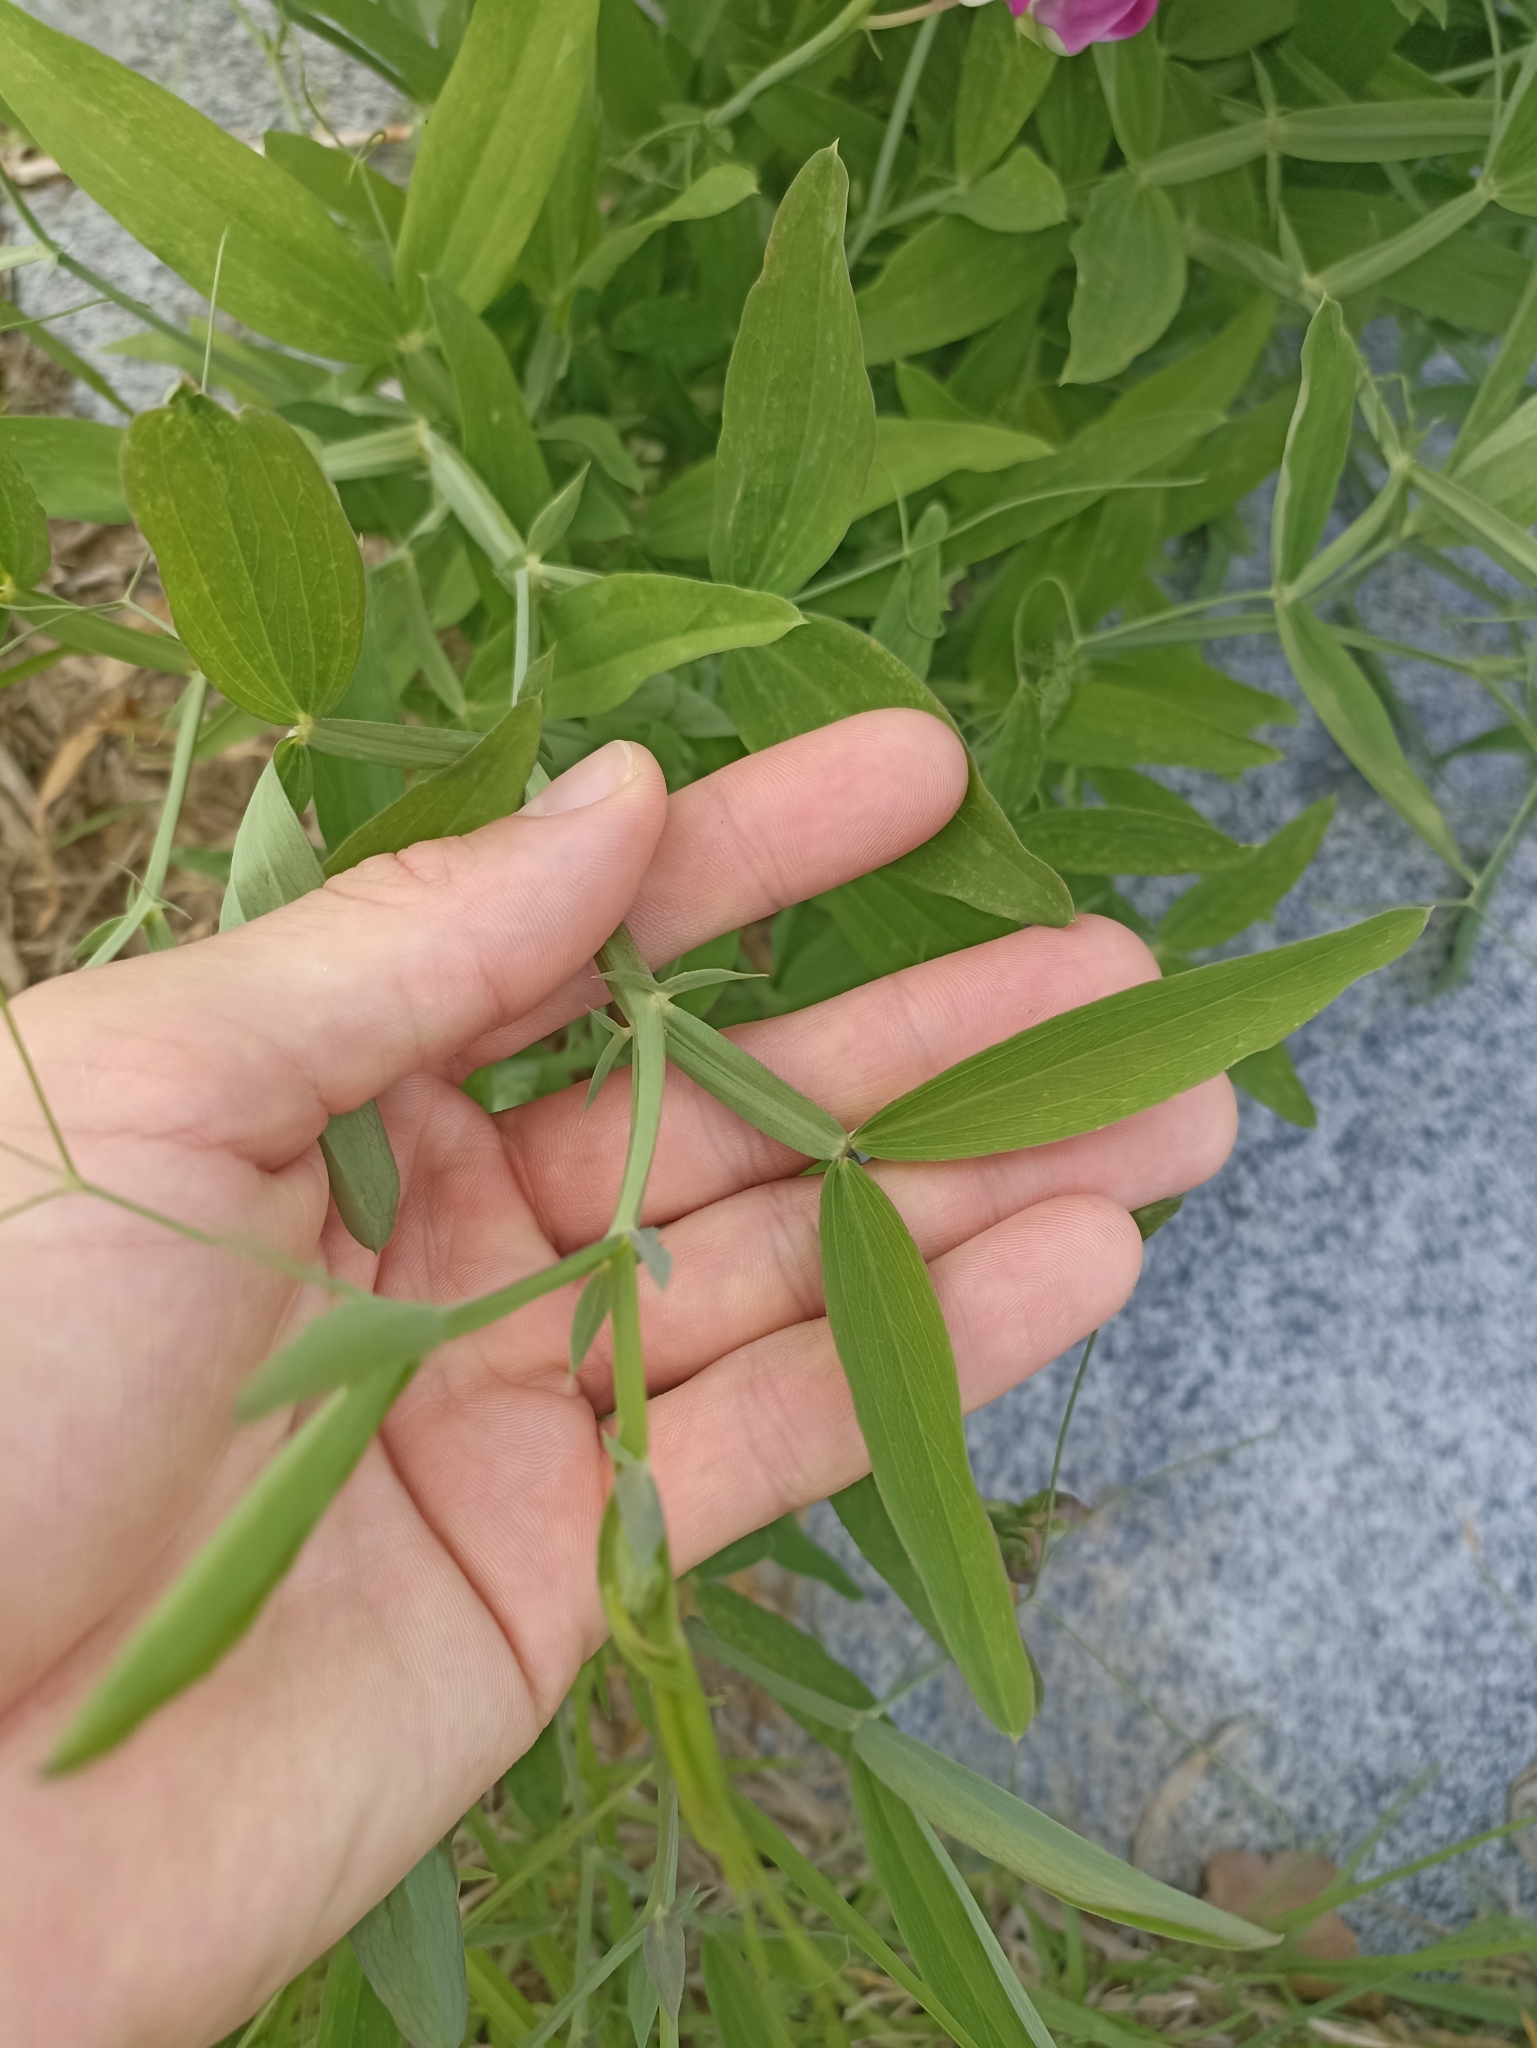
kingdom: Plantae
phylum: Tracheophyta
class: Magnoliopsida
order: Fabales
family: Fabaceae
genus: Lathyrus
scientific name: Lathyrus latifolius
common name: Perennial pea
